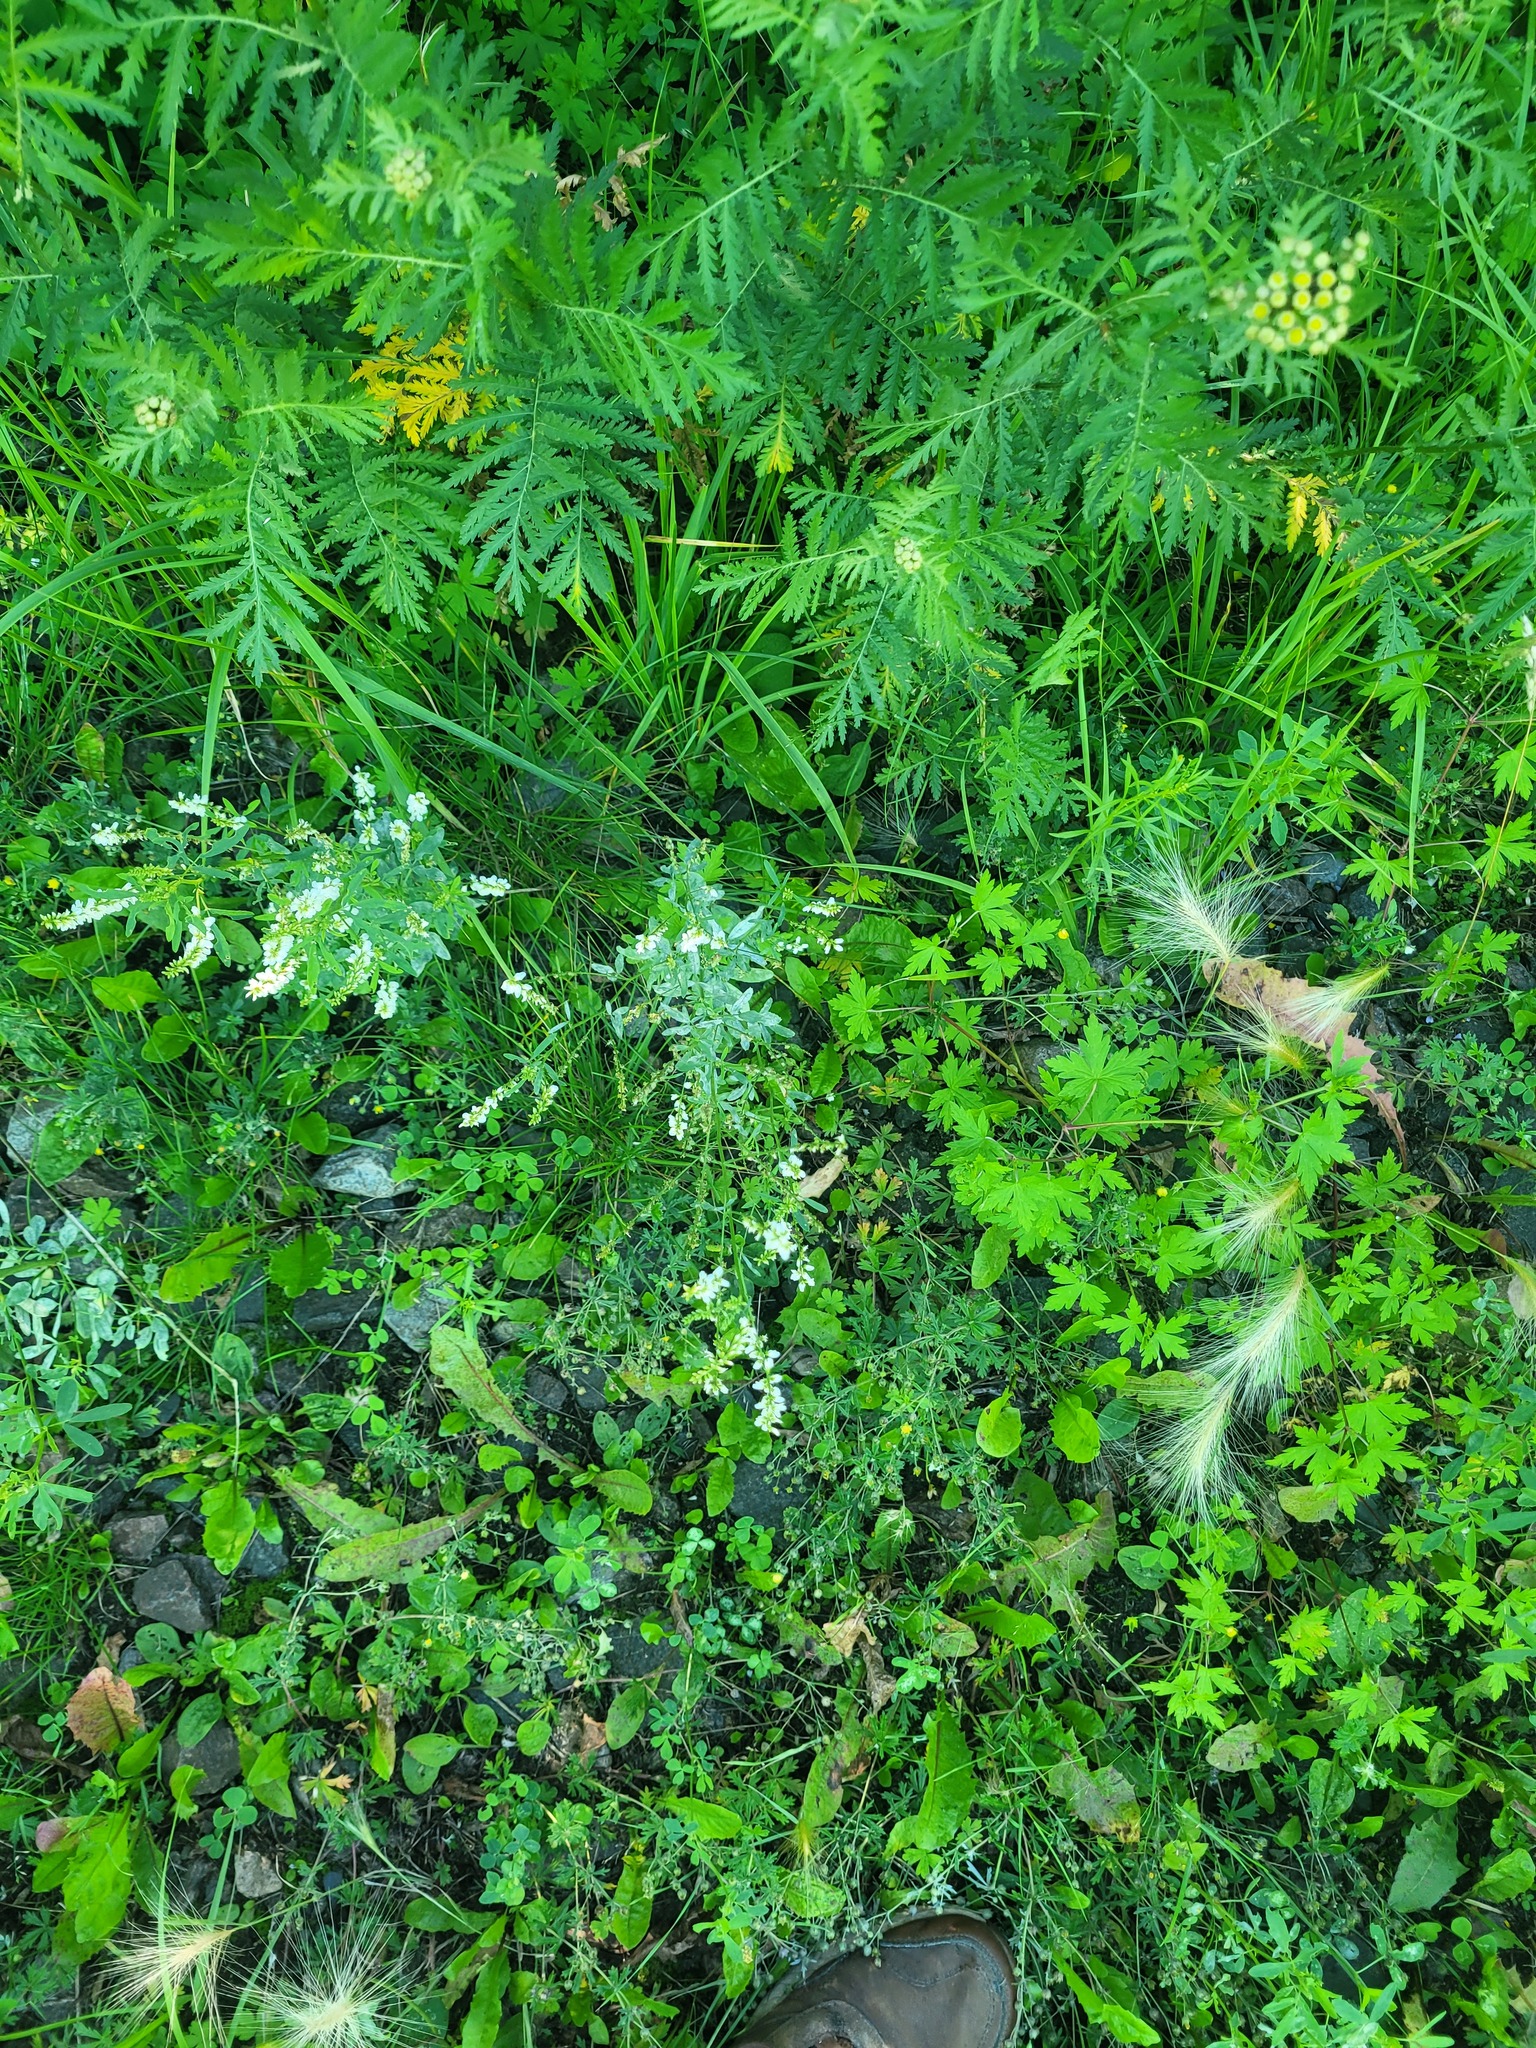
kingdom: Plantae
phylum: Tracheophyta
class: Magnoliopsida
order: Fabales
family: Fabaceae
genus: Melilotus
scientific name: Melilotus albus
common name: White melilot
